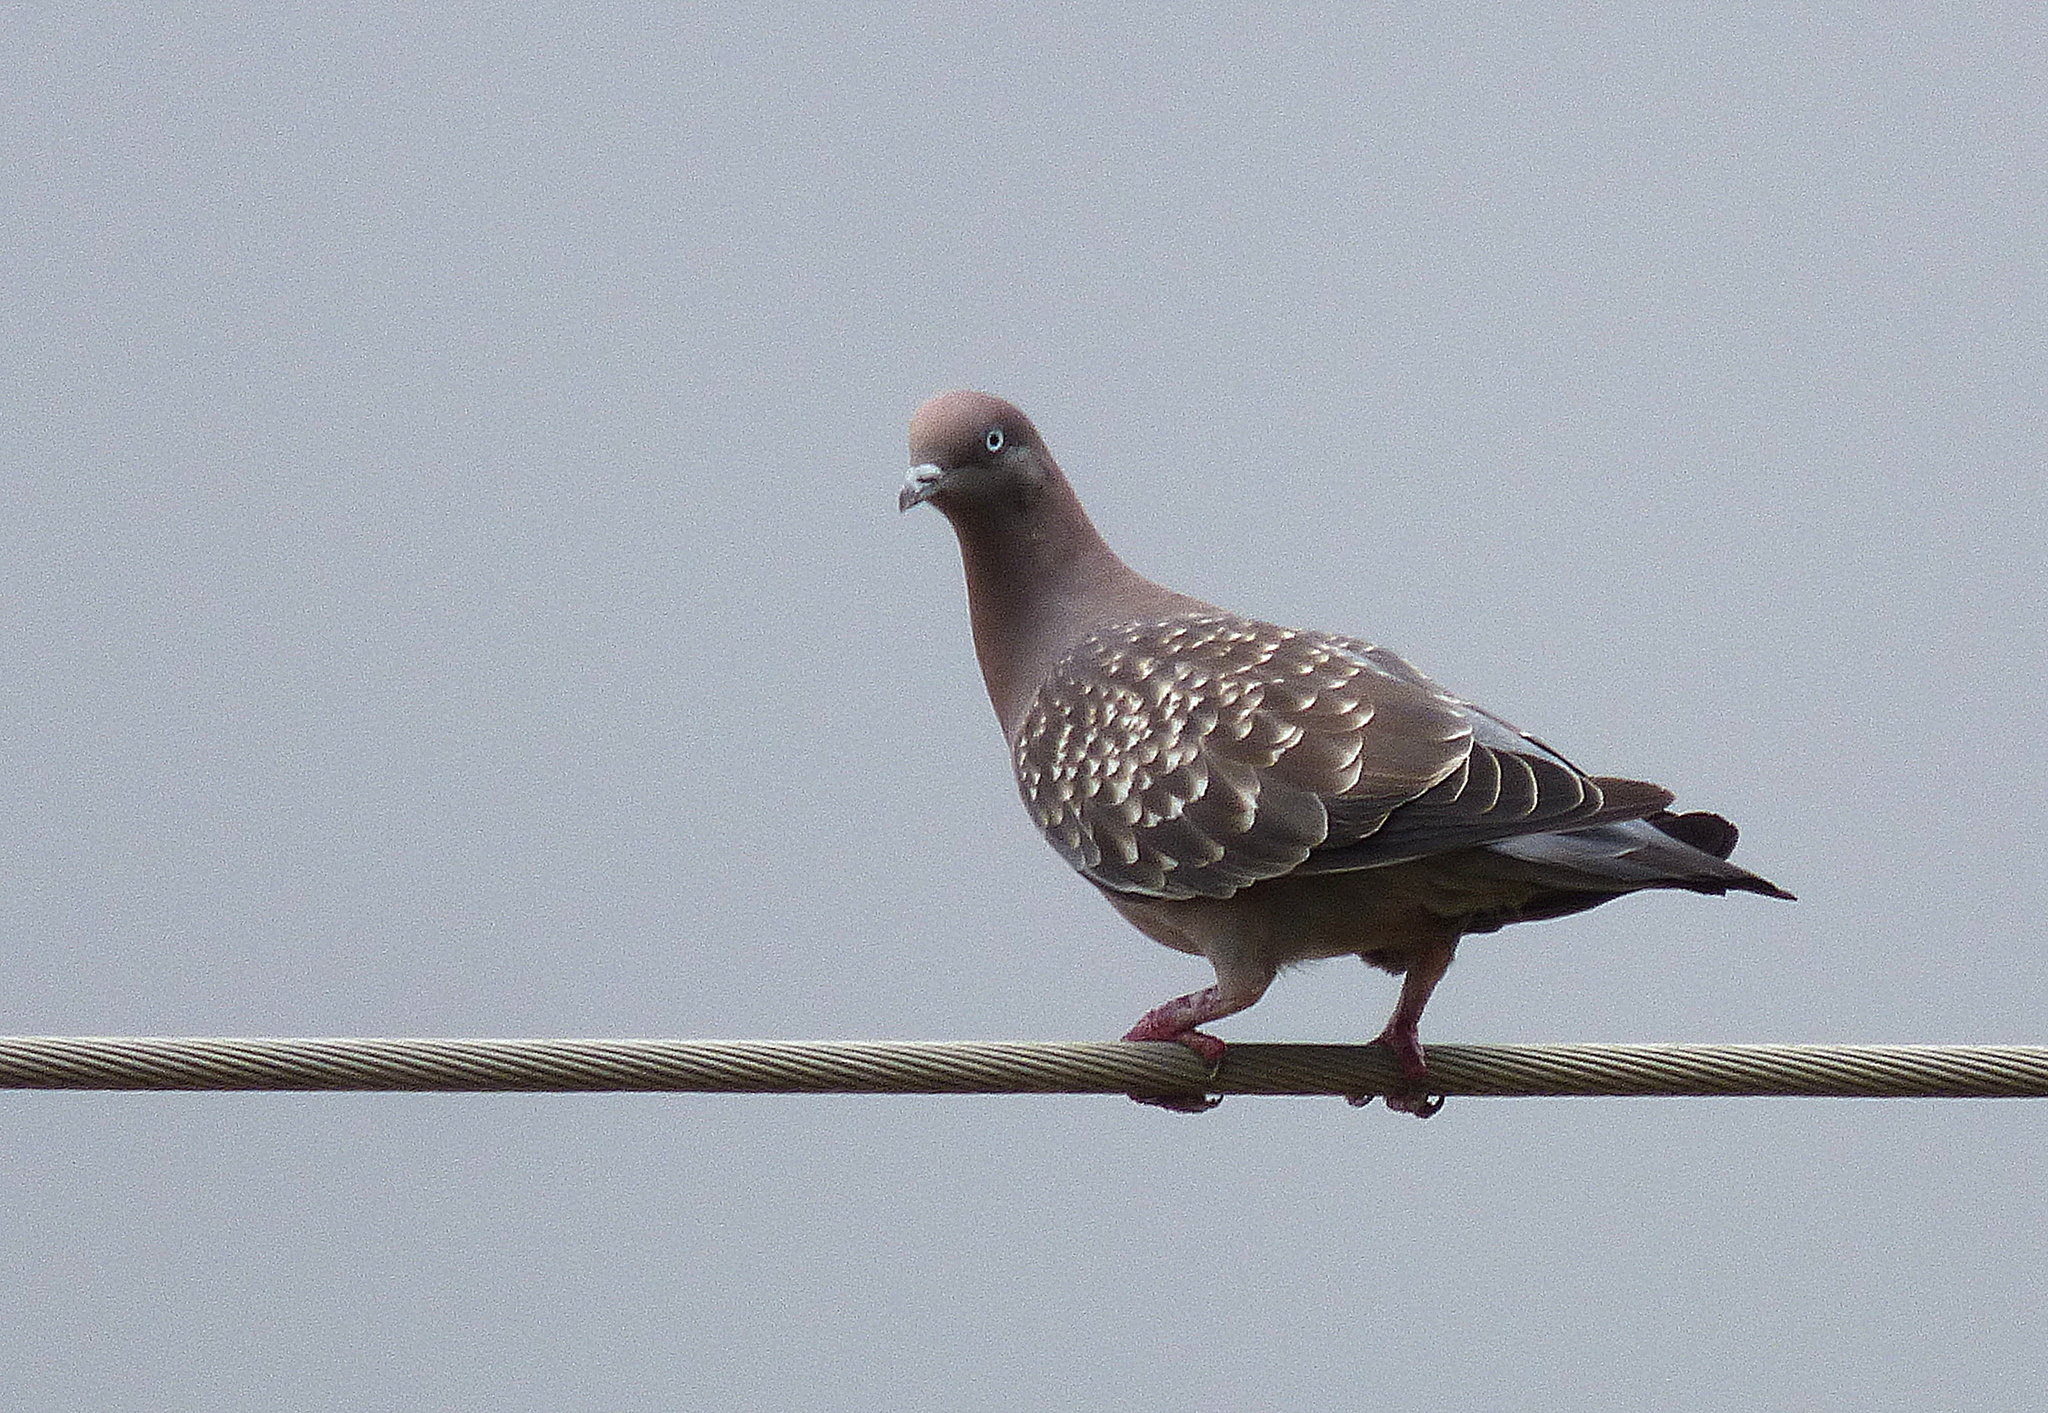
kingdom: Animalia
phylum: Chordata
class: Aves
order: Columbiformes
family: Columbidae
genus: Patagioenas
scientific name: Patagioenas maculosa
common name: Spot-winged pigeon
